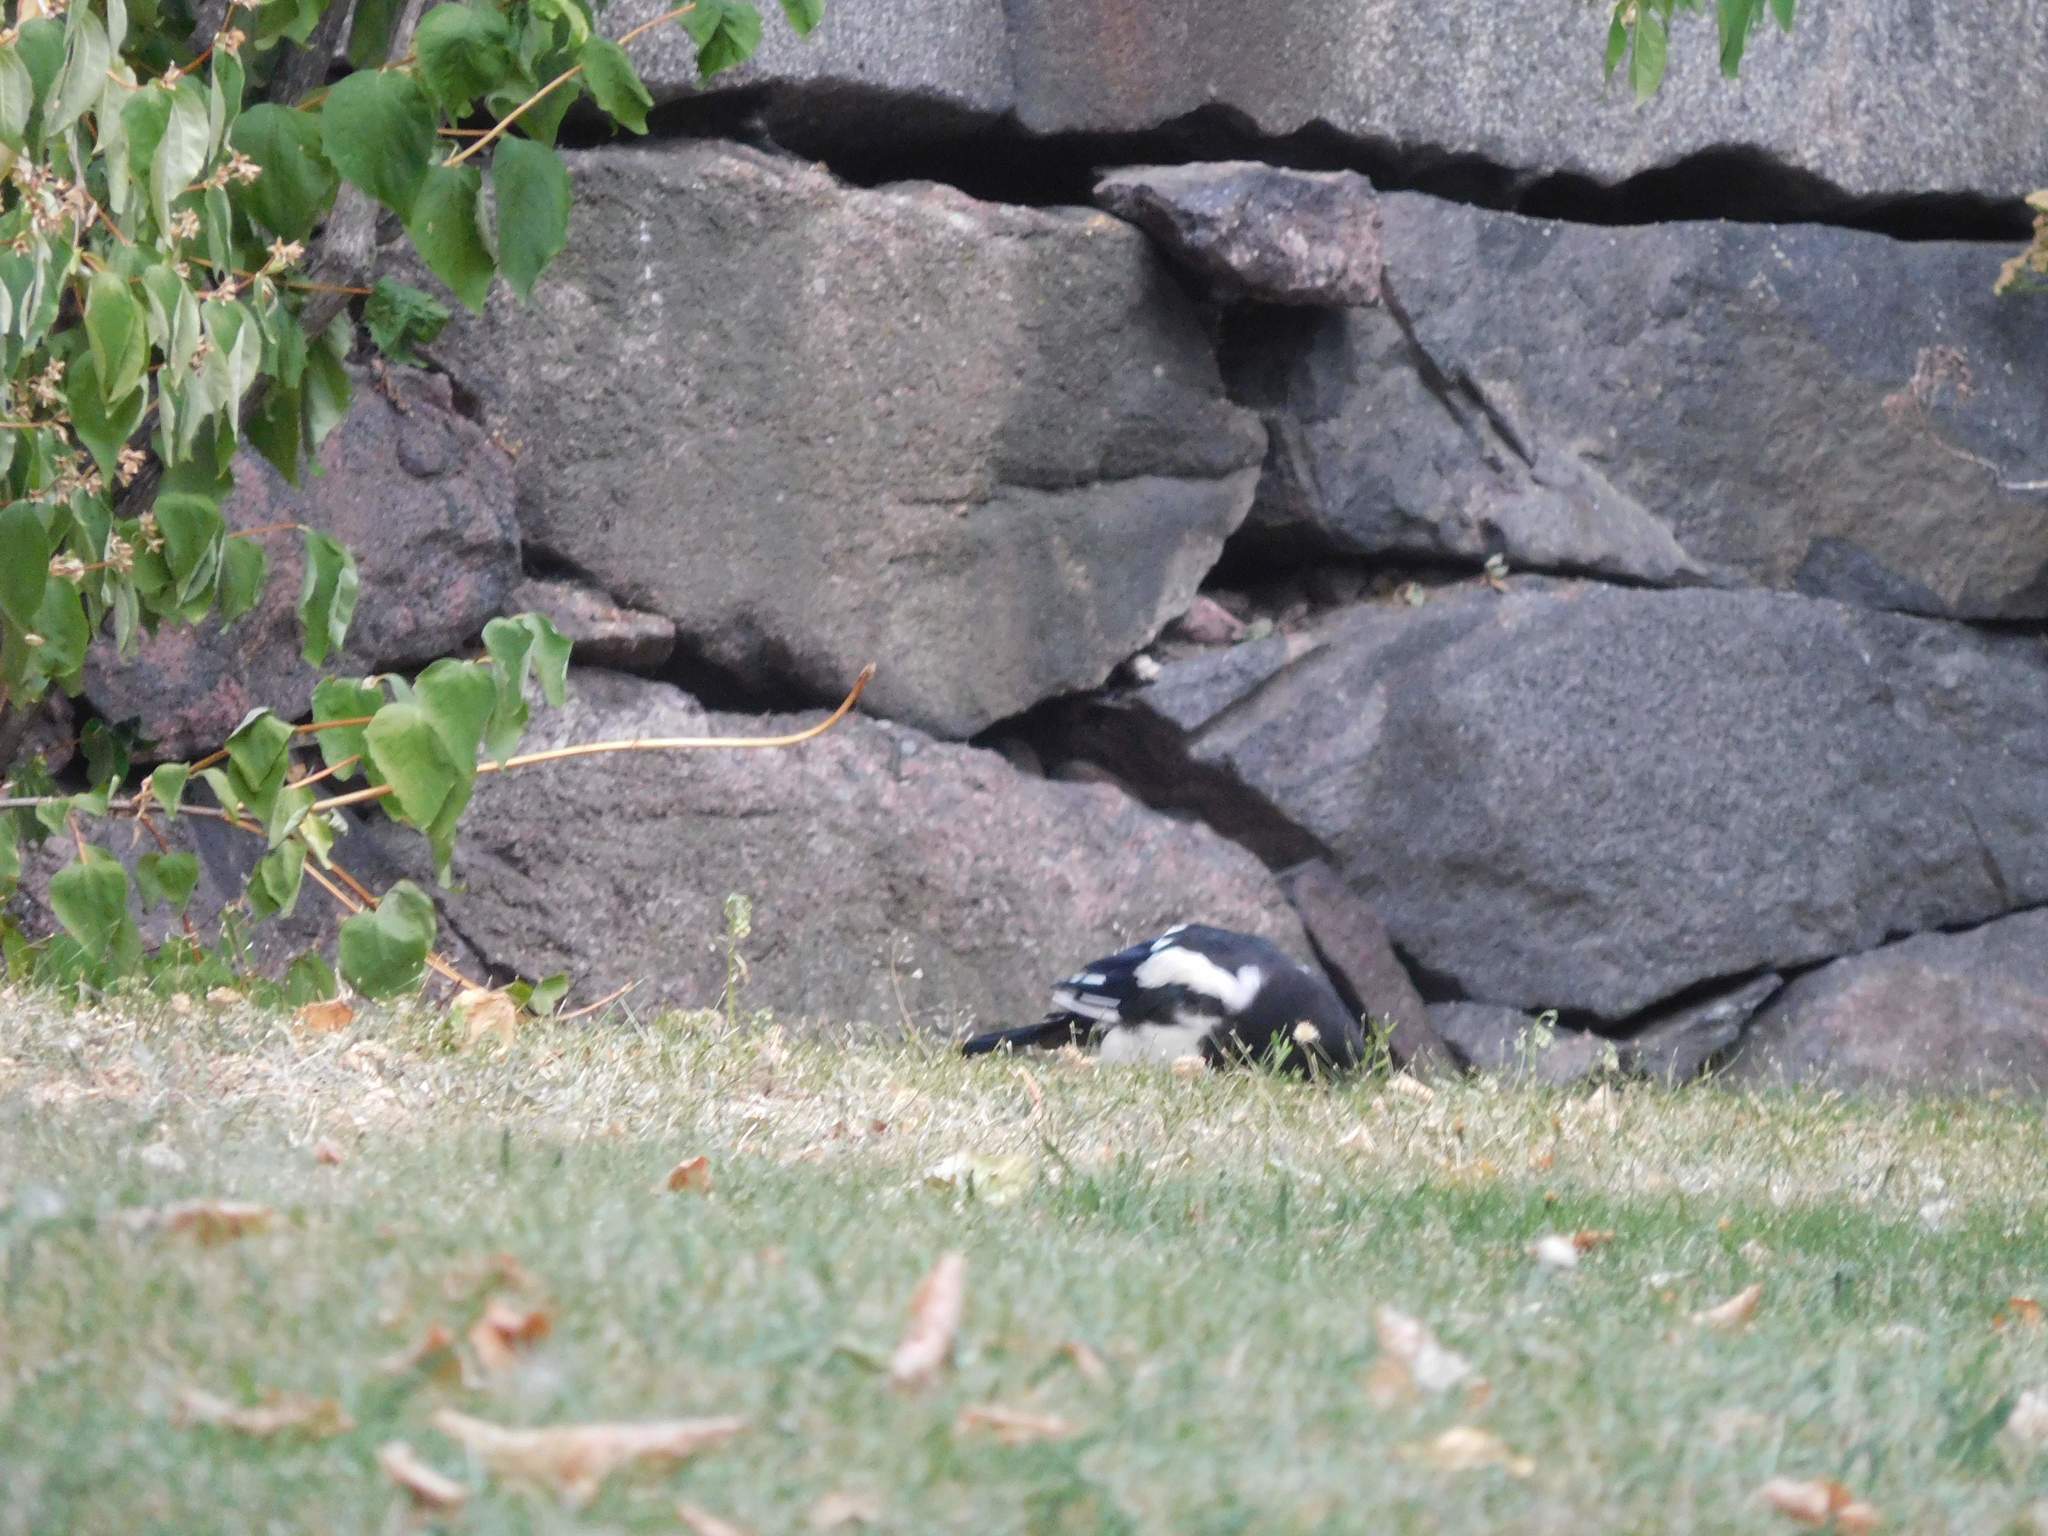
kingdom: Animalia
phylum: Chordata
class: Aves
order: Passeriformes
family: Corvidae
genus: Pica
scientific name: Pica pica
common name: Eurasian magpie
